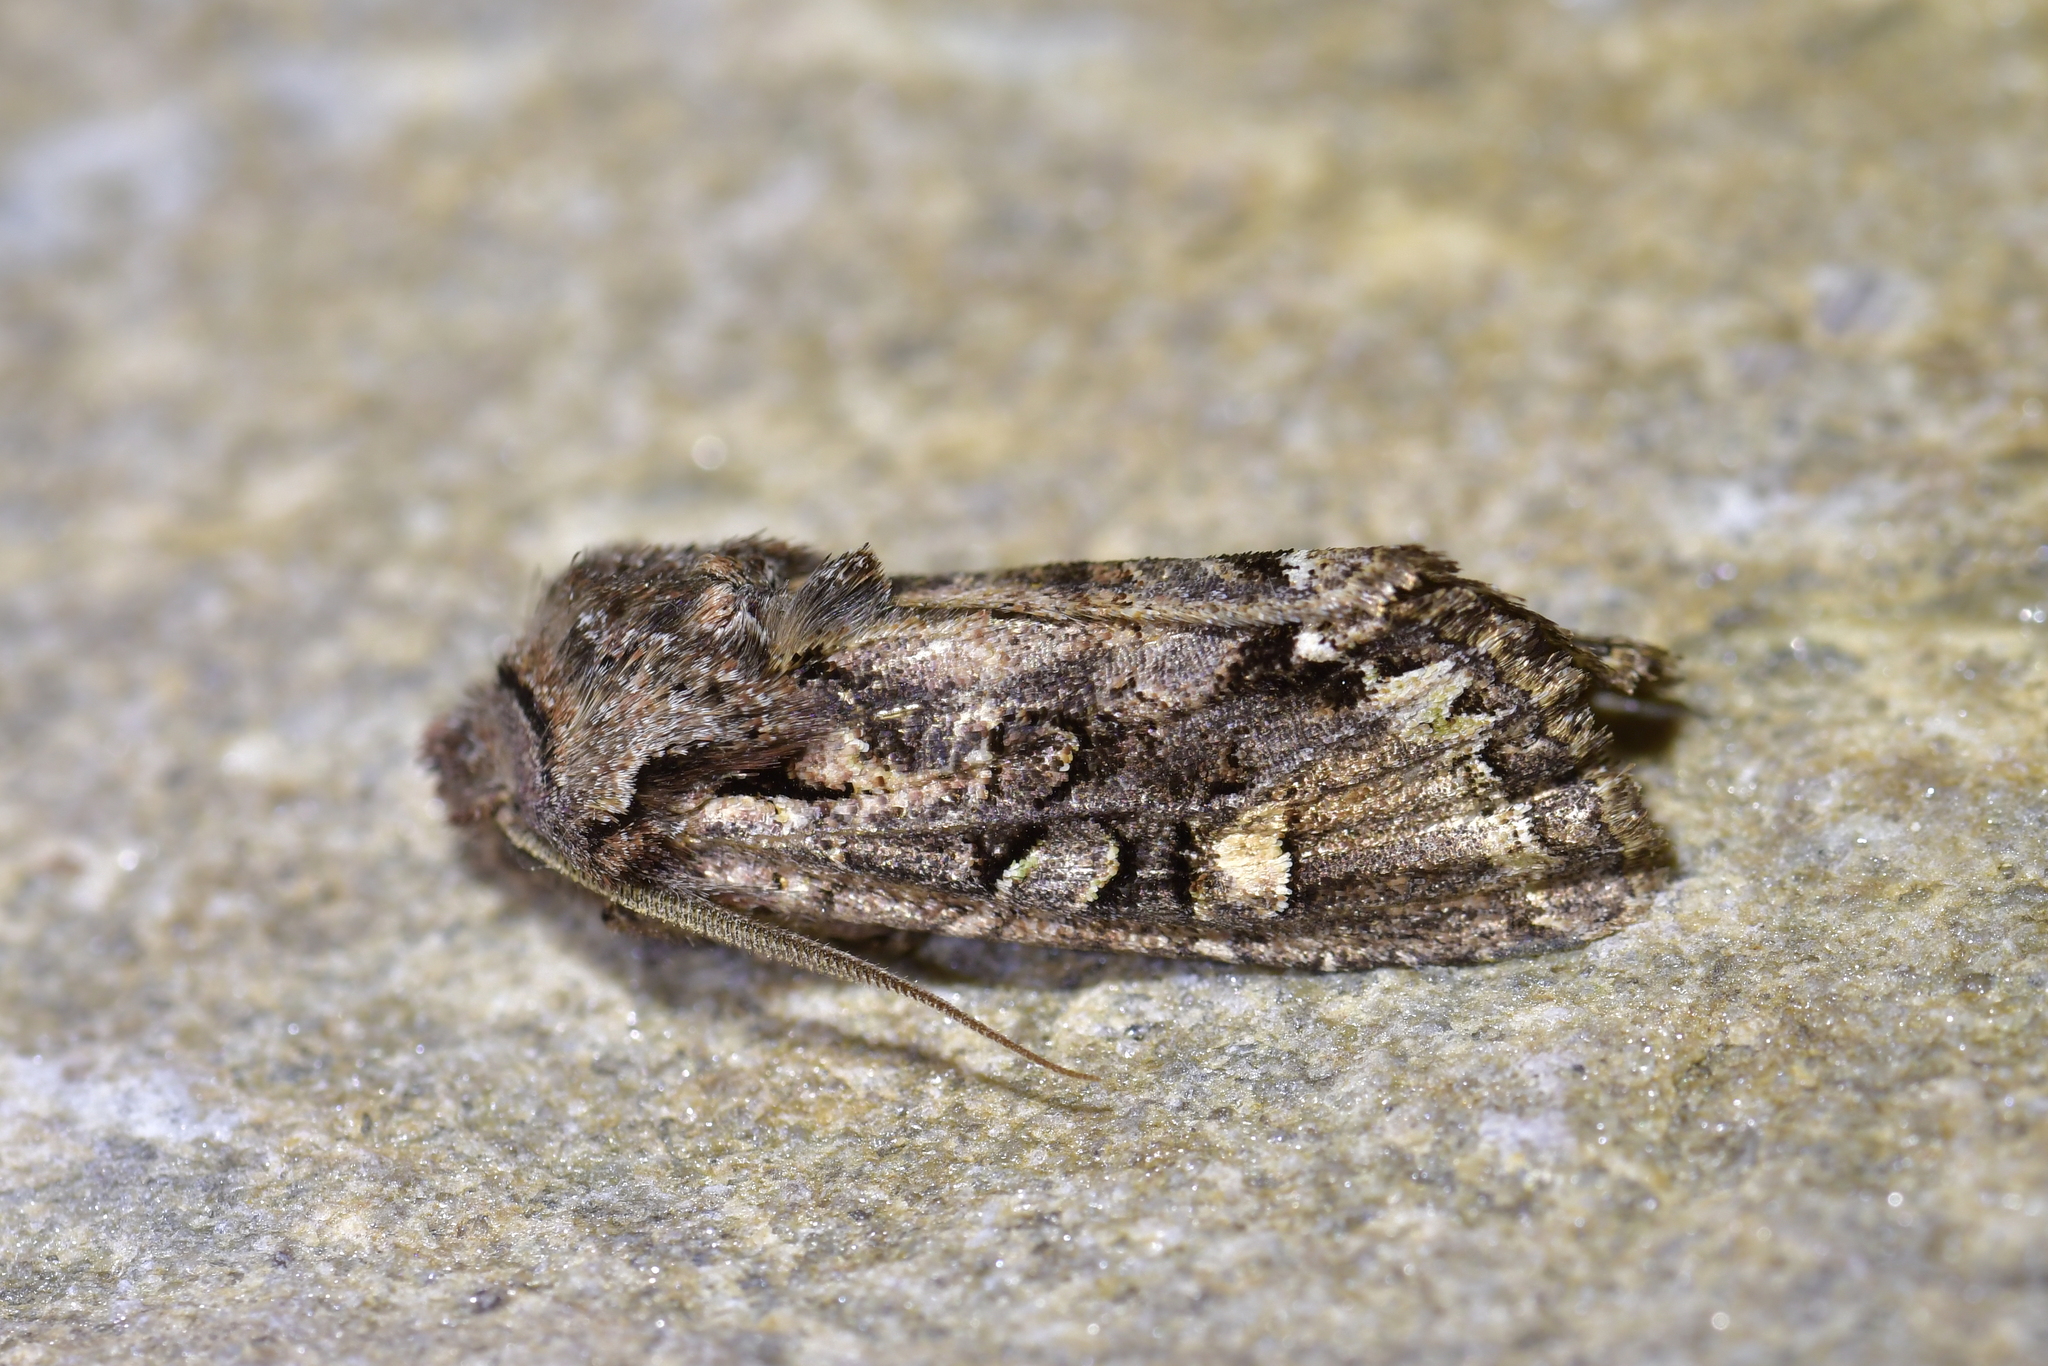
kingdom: Animalia
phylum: Arthropoda
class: Insecta
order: Lepidoptera
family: Noctuidae
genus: Ichneutica
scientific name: Ichneutica skelloni
